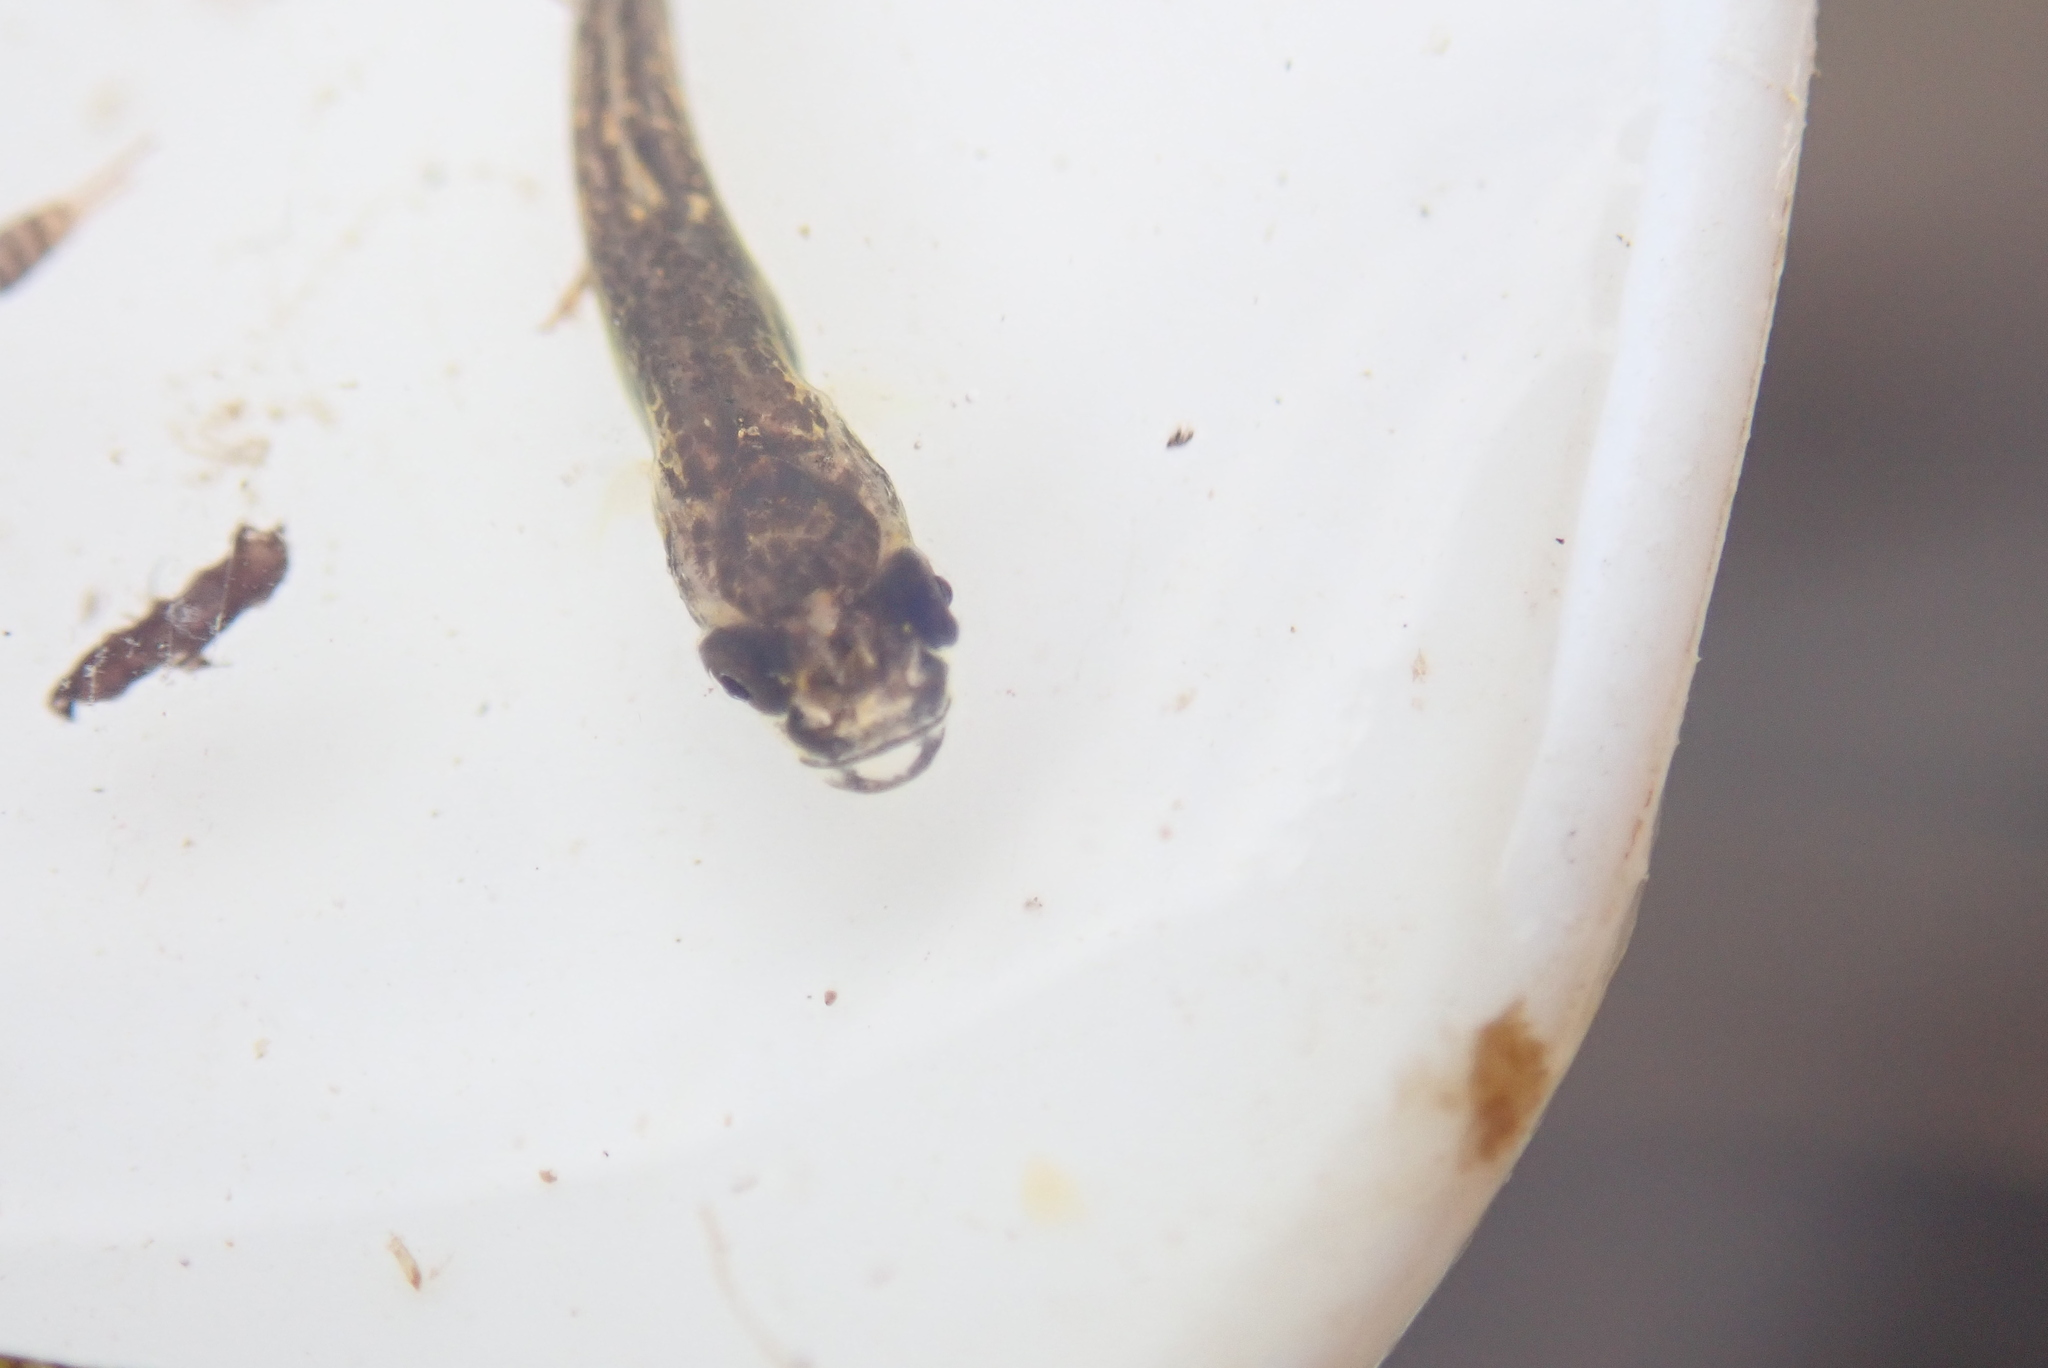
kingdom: Animalia
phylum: Chordata
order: Gadiformes
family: Lotidae
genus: Lota
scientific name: Lota lota
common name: Burbot
